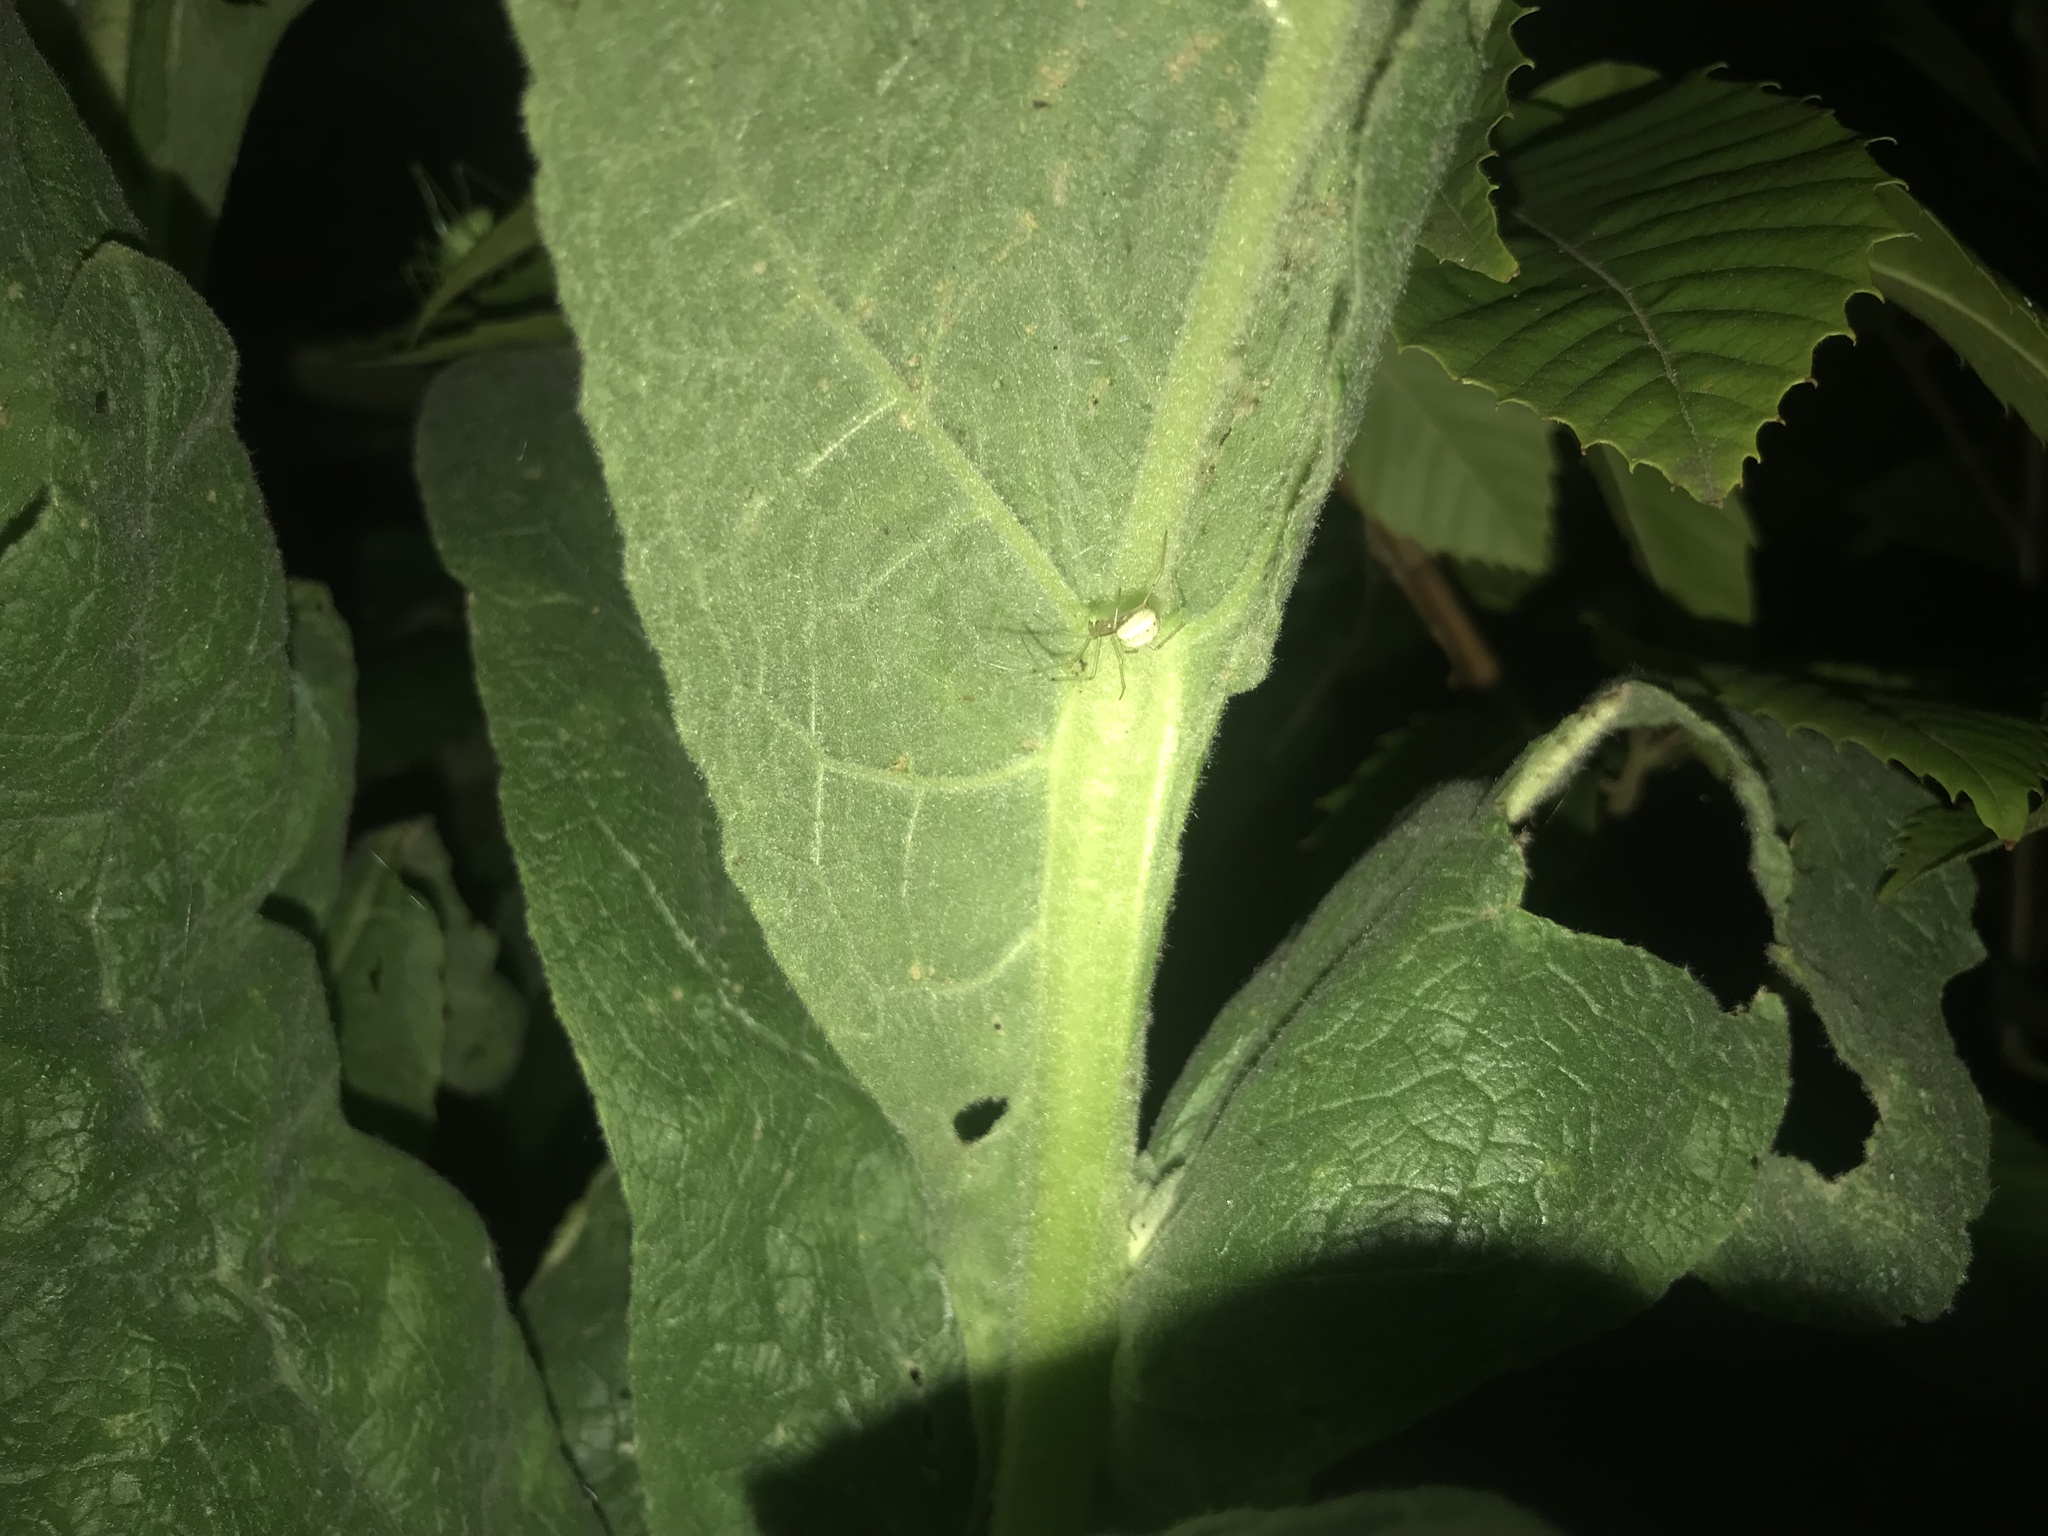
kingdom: Animalia
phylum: Arthropoda
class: Arachnida
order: Araneae
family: Theridiidae
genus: Enoplognatha
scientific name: Enoplognatha ovata
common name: Common candy-striped spider
